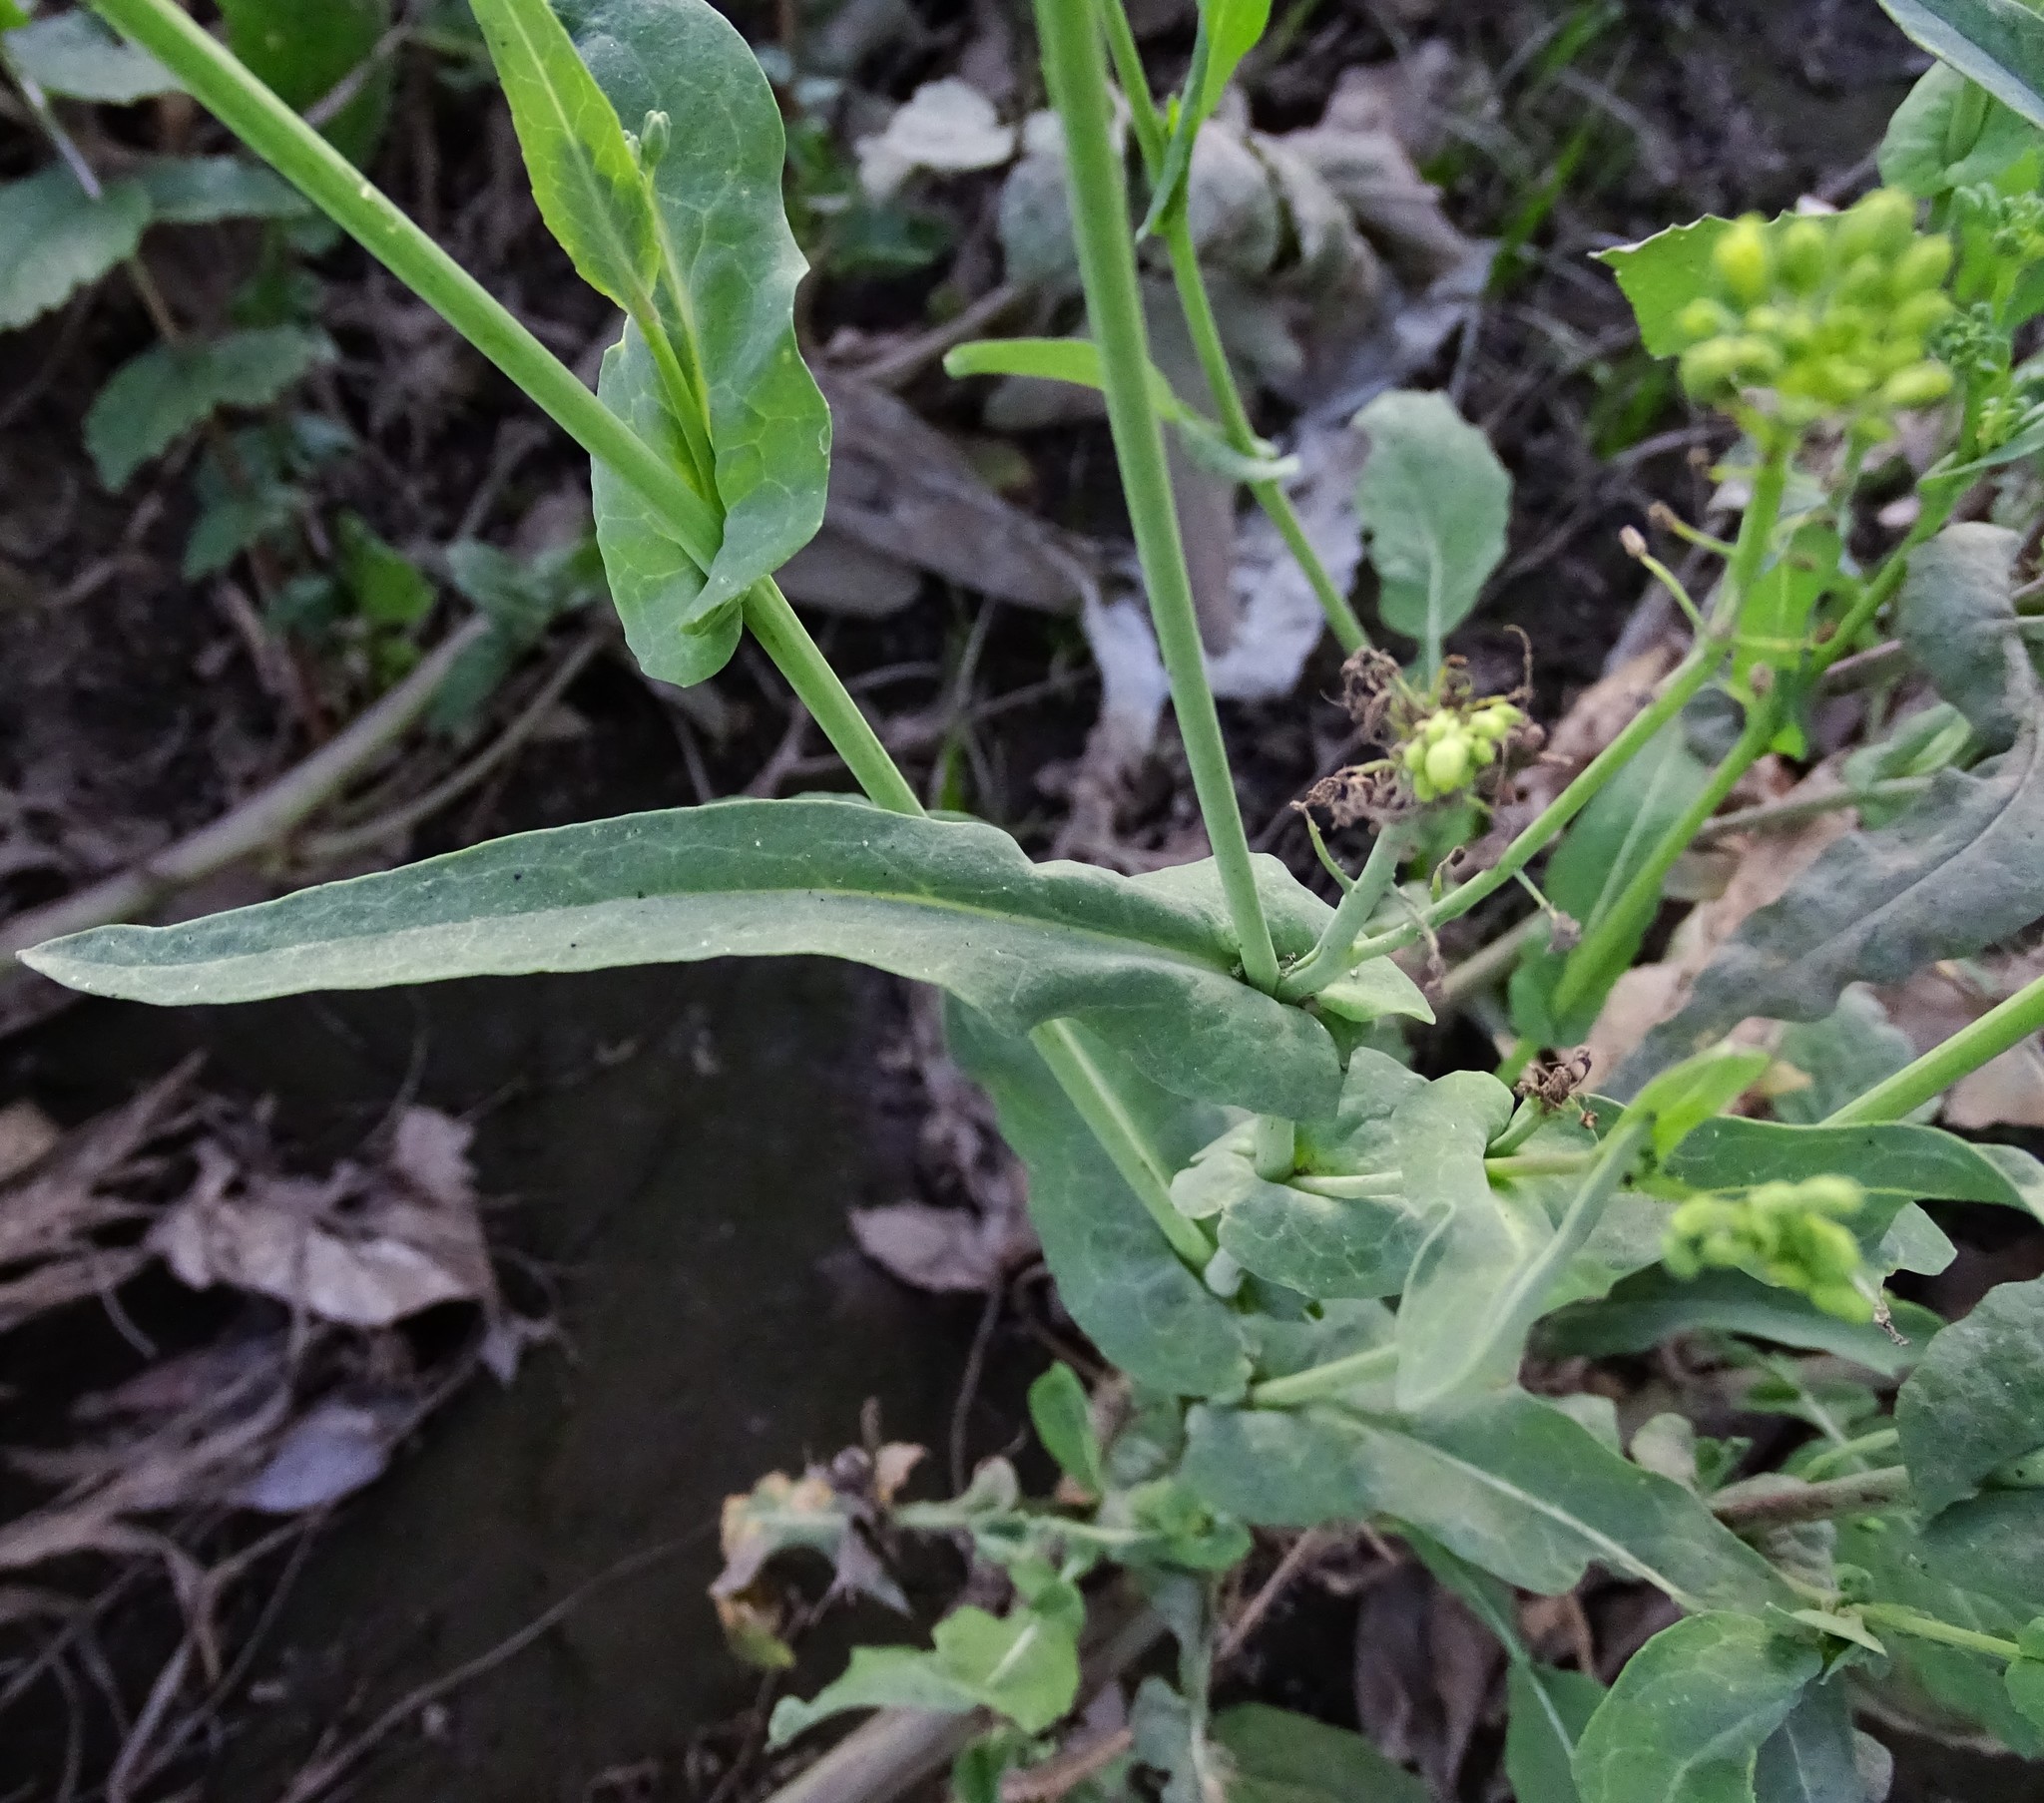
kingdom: Plantae
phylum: Tracheophyta
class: Magnoliopsida
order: Brassicales
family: Brassicaceae
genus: Brassica
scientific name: Brassica rapa
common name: Field mustard
